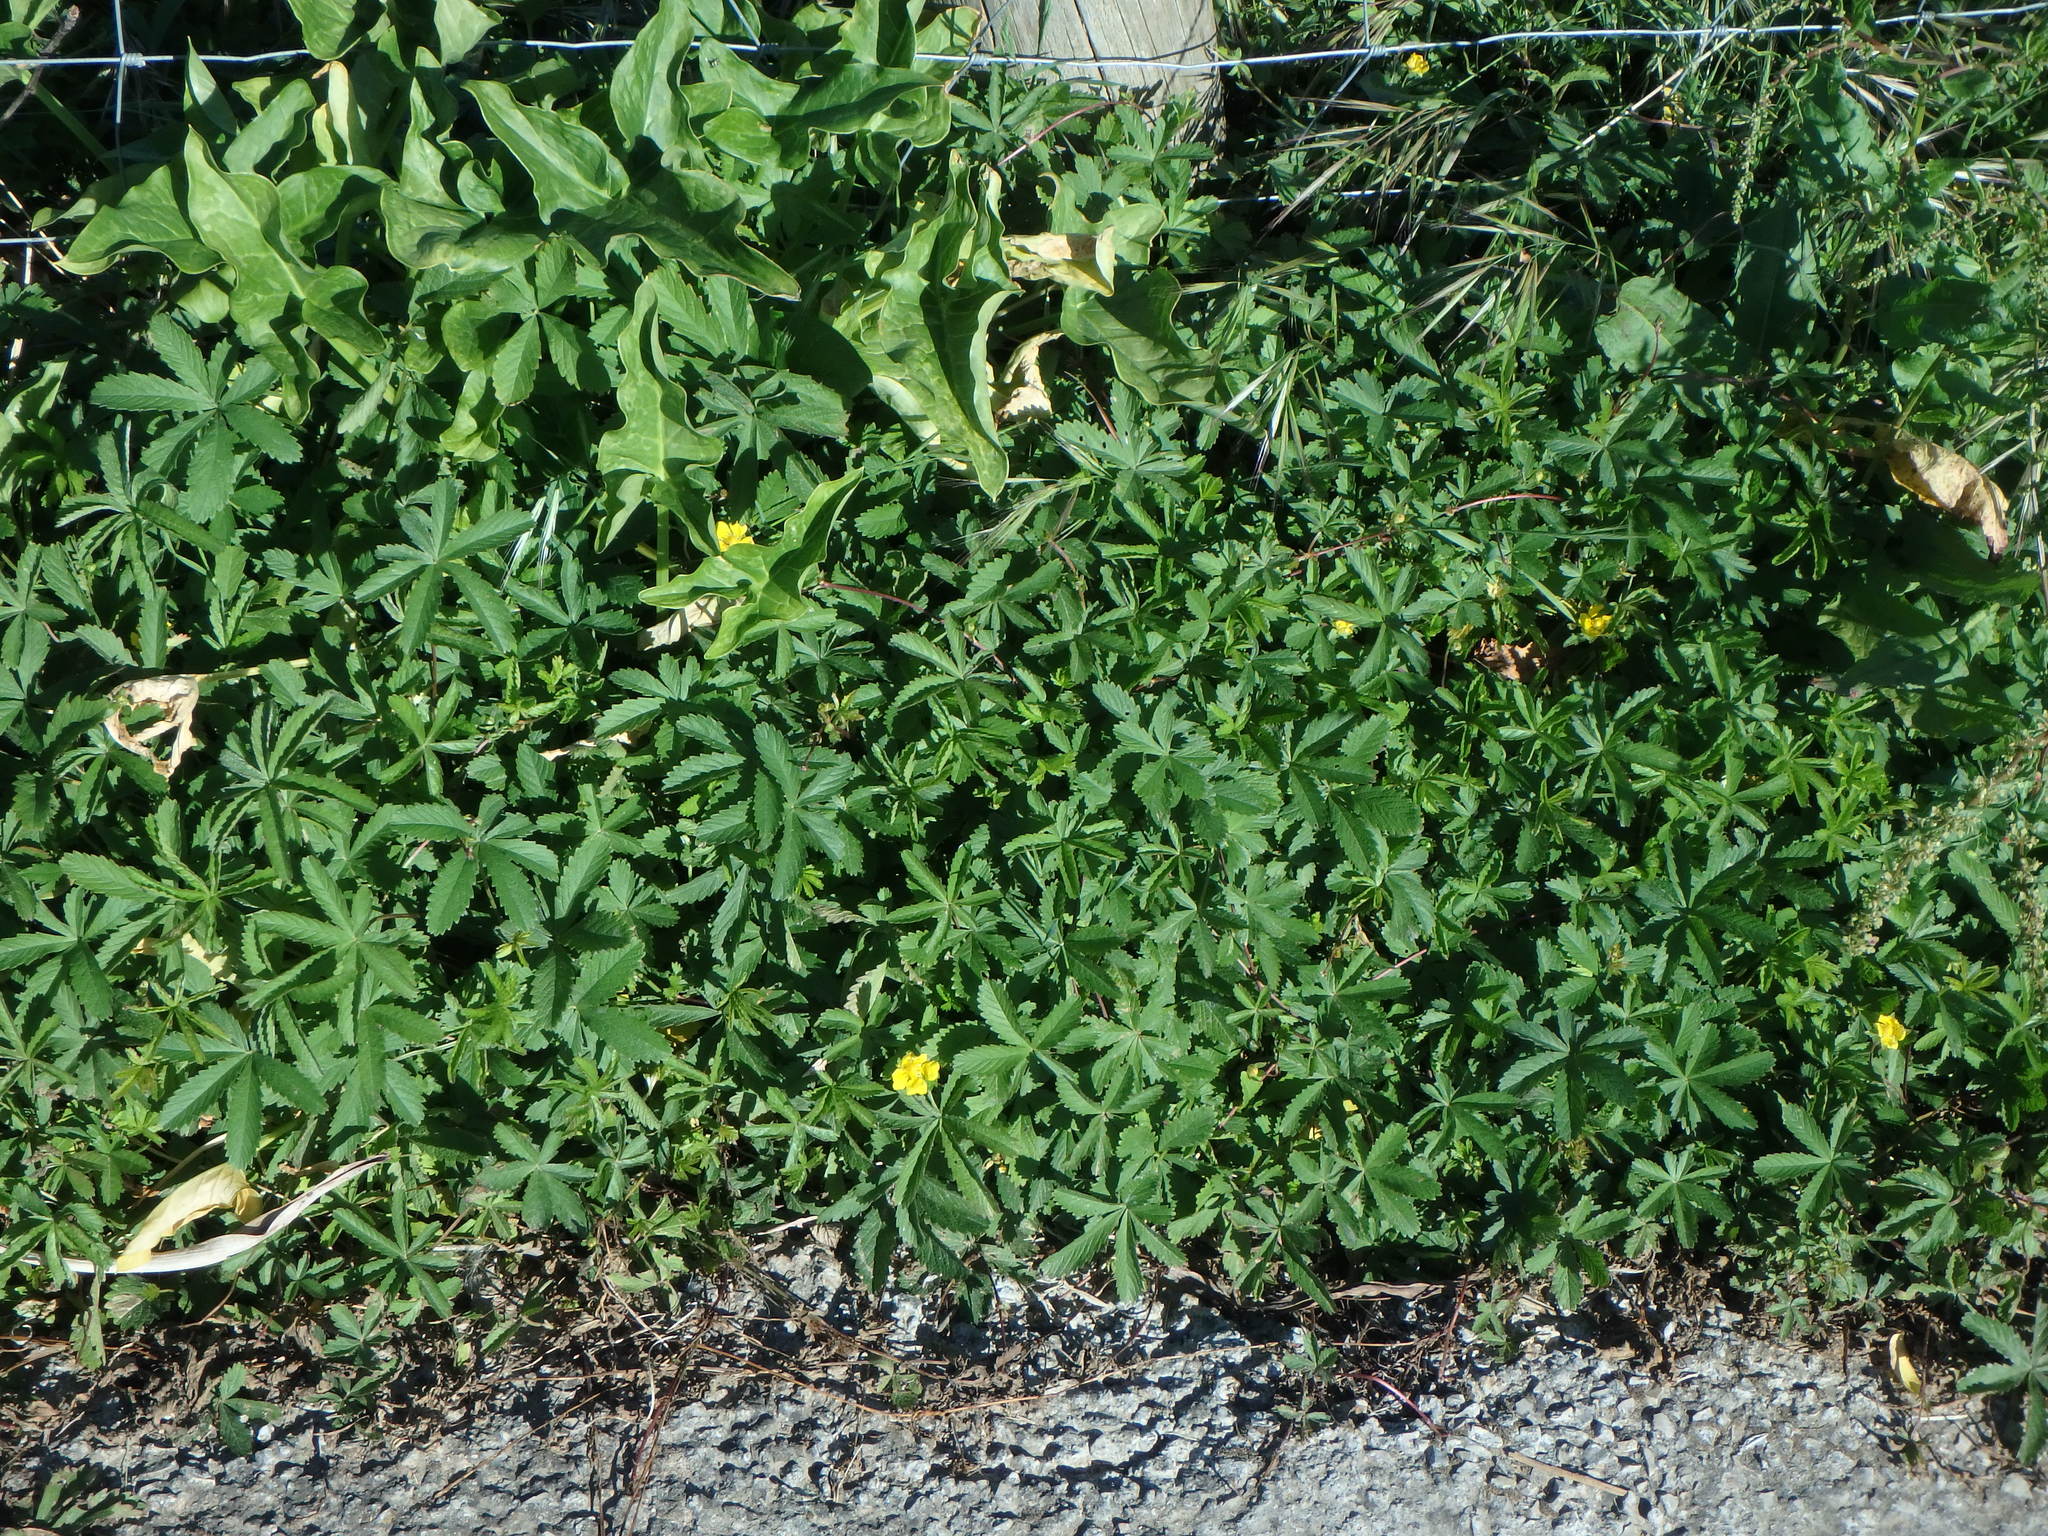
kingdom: Plantae
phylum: Tracheophyta
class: Magnoliopsida
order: Rosales
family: Rosaceae
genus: Potentilla
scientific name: Potentilla reptans
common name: Creeping cinquefoil
